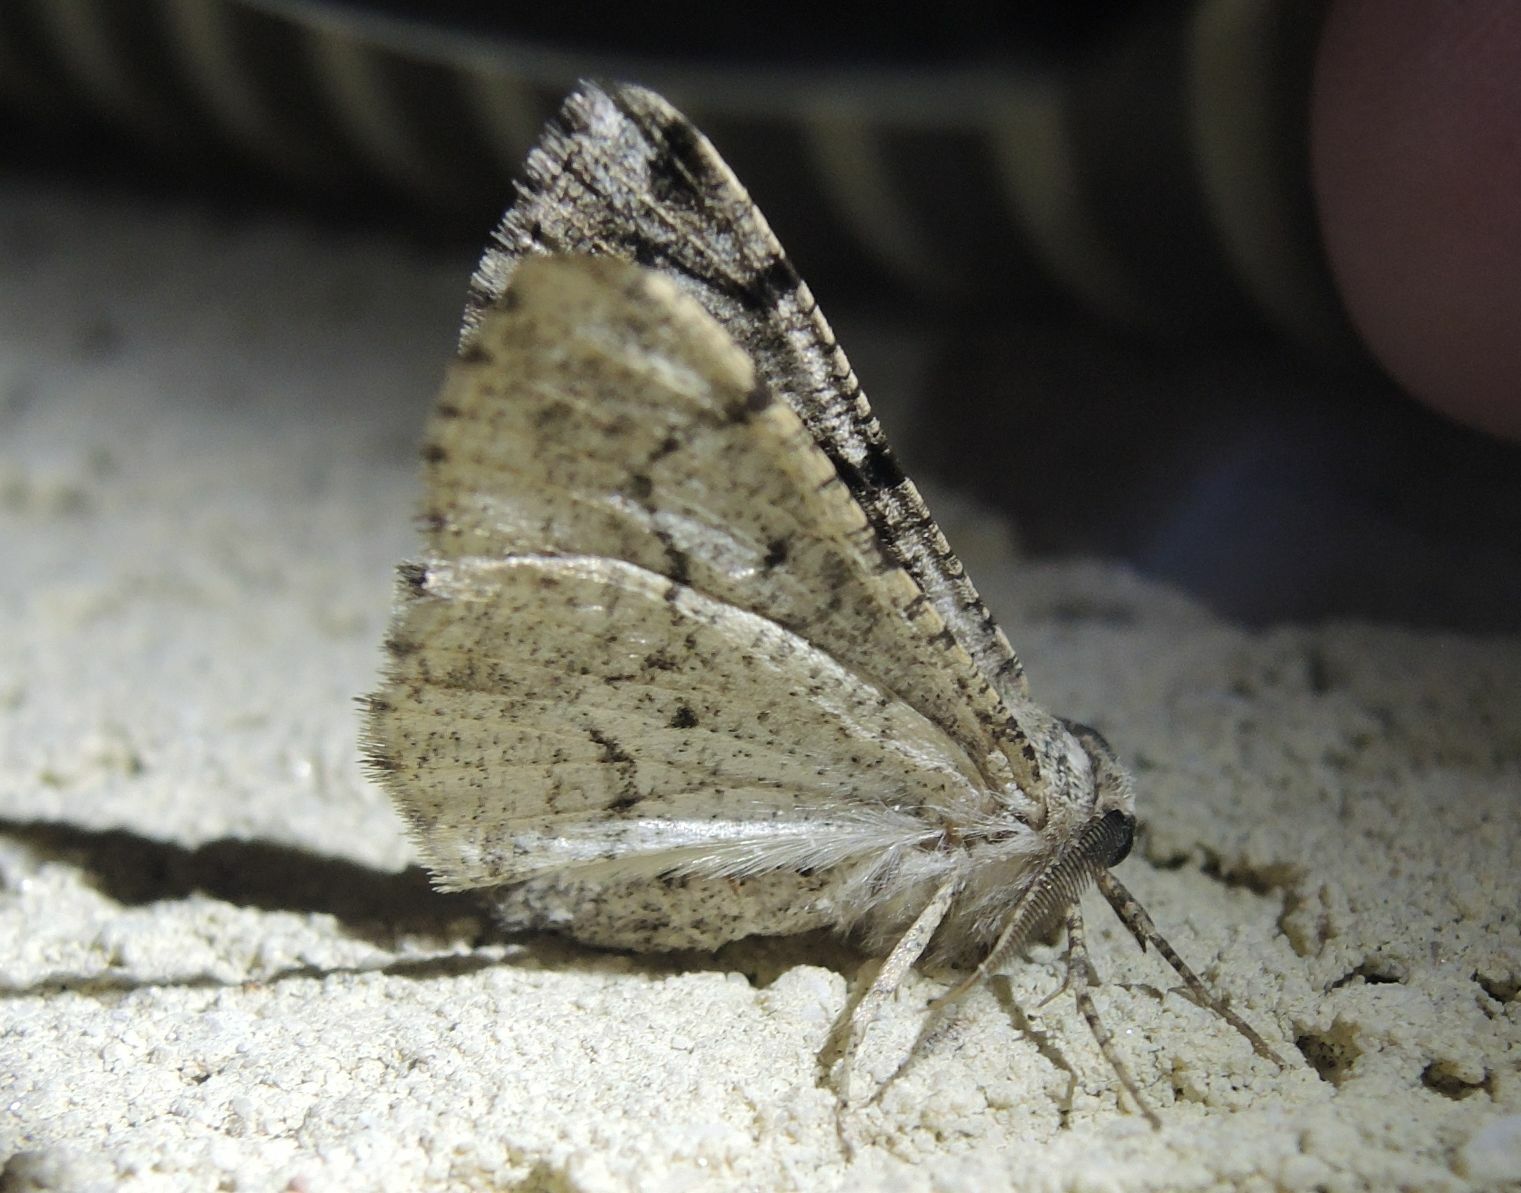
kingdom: Animalia
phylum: Arthropoda
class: Insecta
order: Lepidoptera
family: Geometridae
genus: Synopsia
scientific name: Synopsia sociaria
